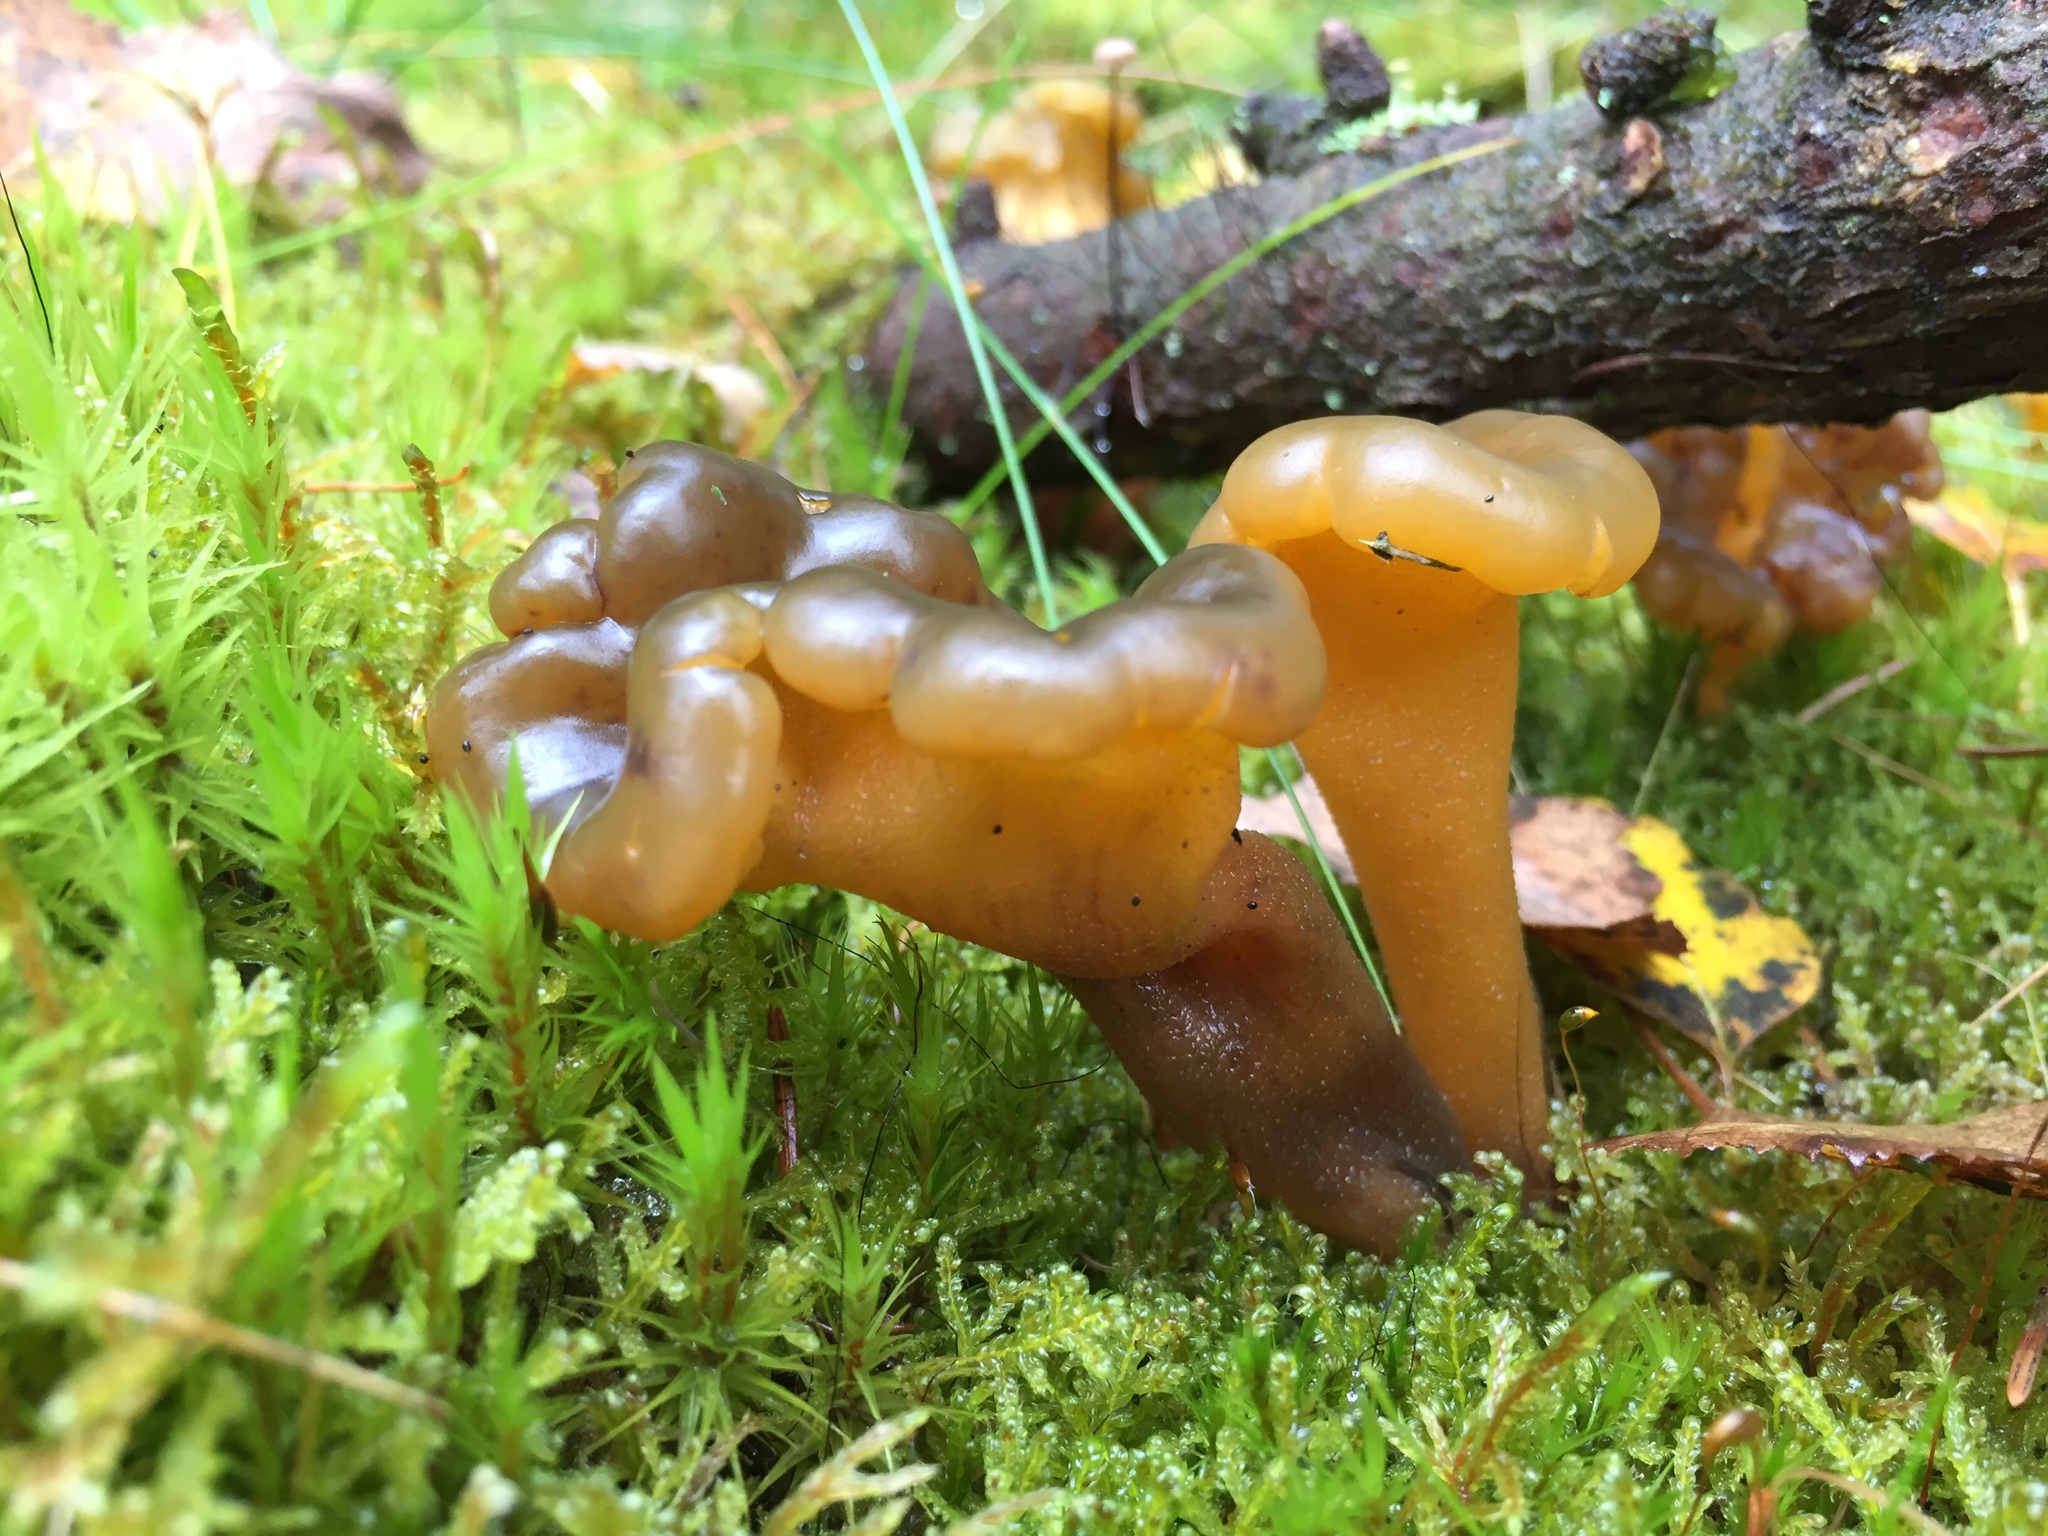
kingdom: Fungi
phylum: Ascomycota
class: Leotiomycetes
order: Leotiales
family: Leotiaceae
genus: Leotia
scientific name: Leotia lubrica
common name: Jellybaby
